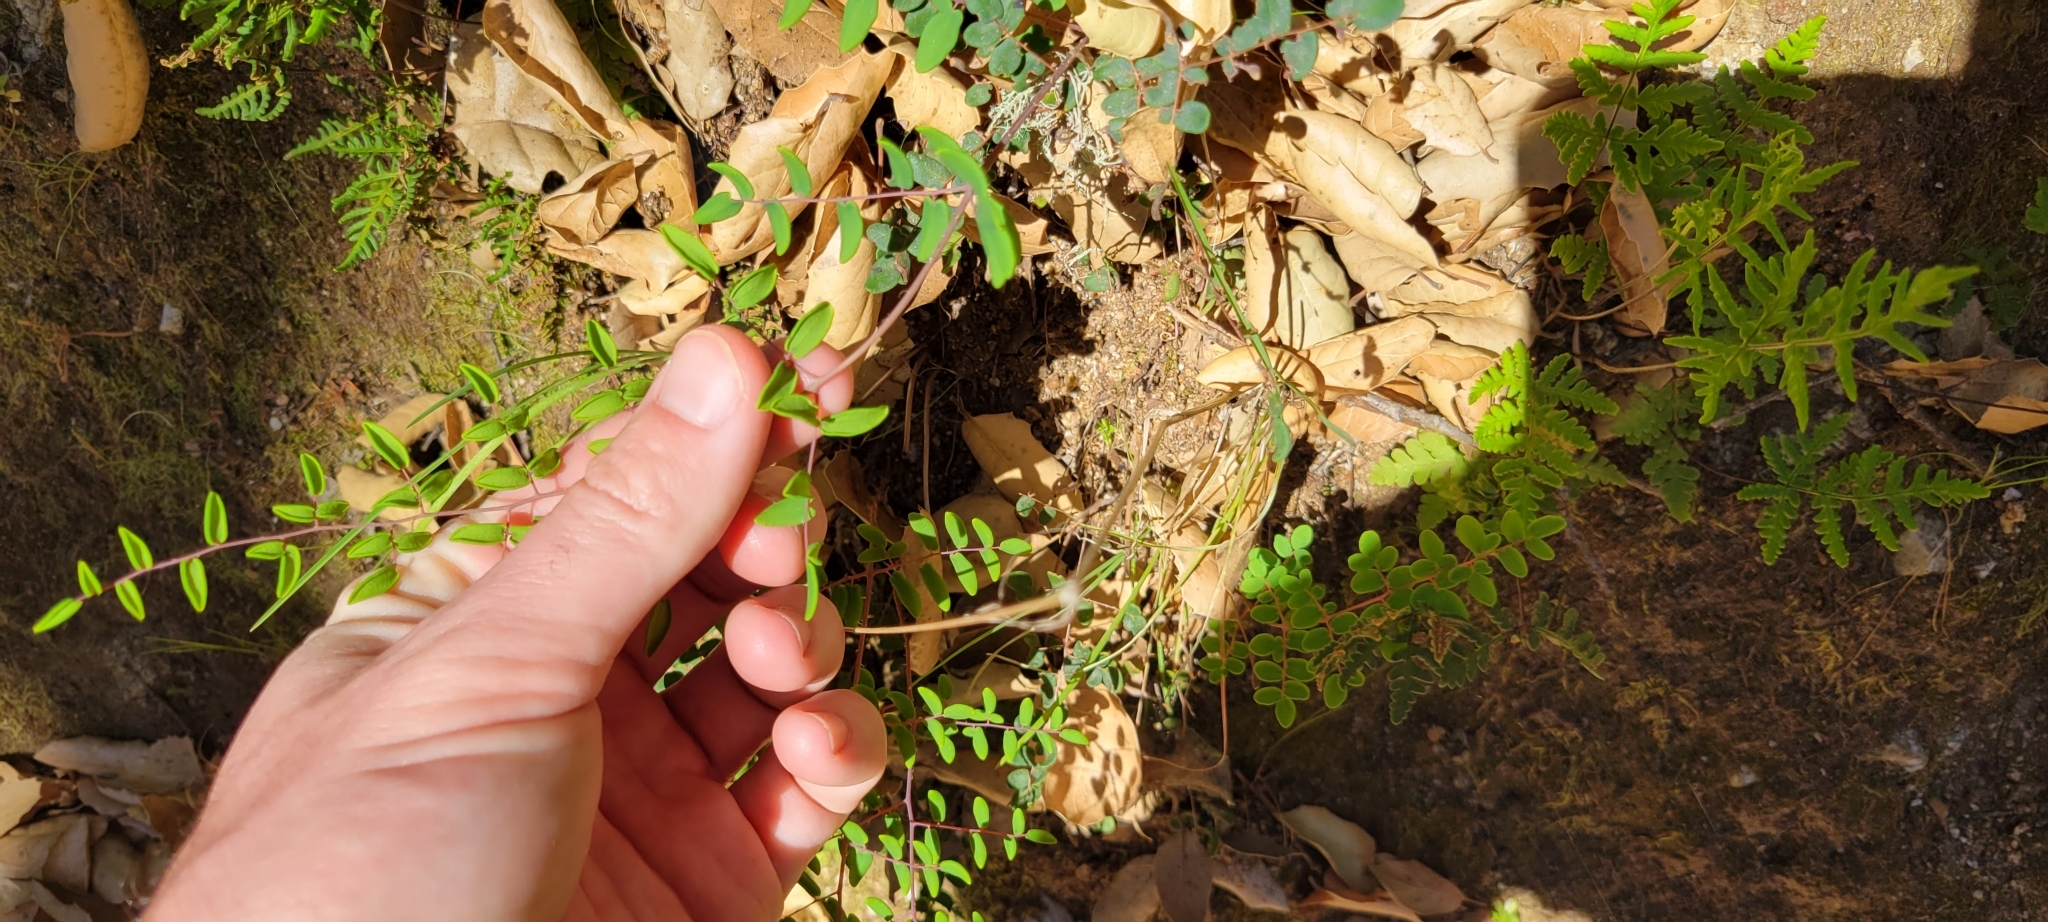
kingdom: Plantae
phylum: Tracheophyta
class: Polypodiopsida
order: Polypodiales
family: Pteridaceae
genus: Pellaea
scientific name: Pellaea andromedifolia
